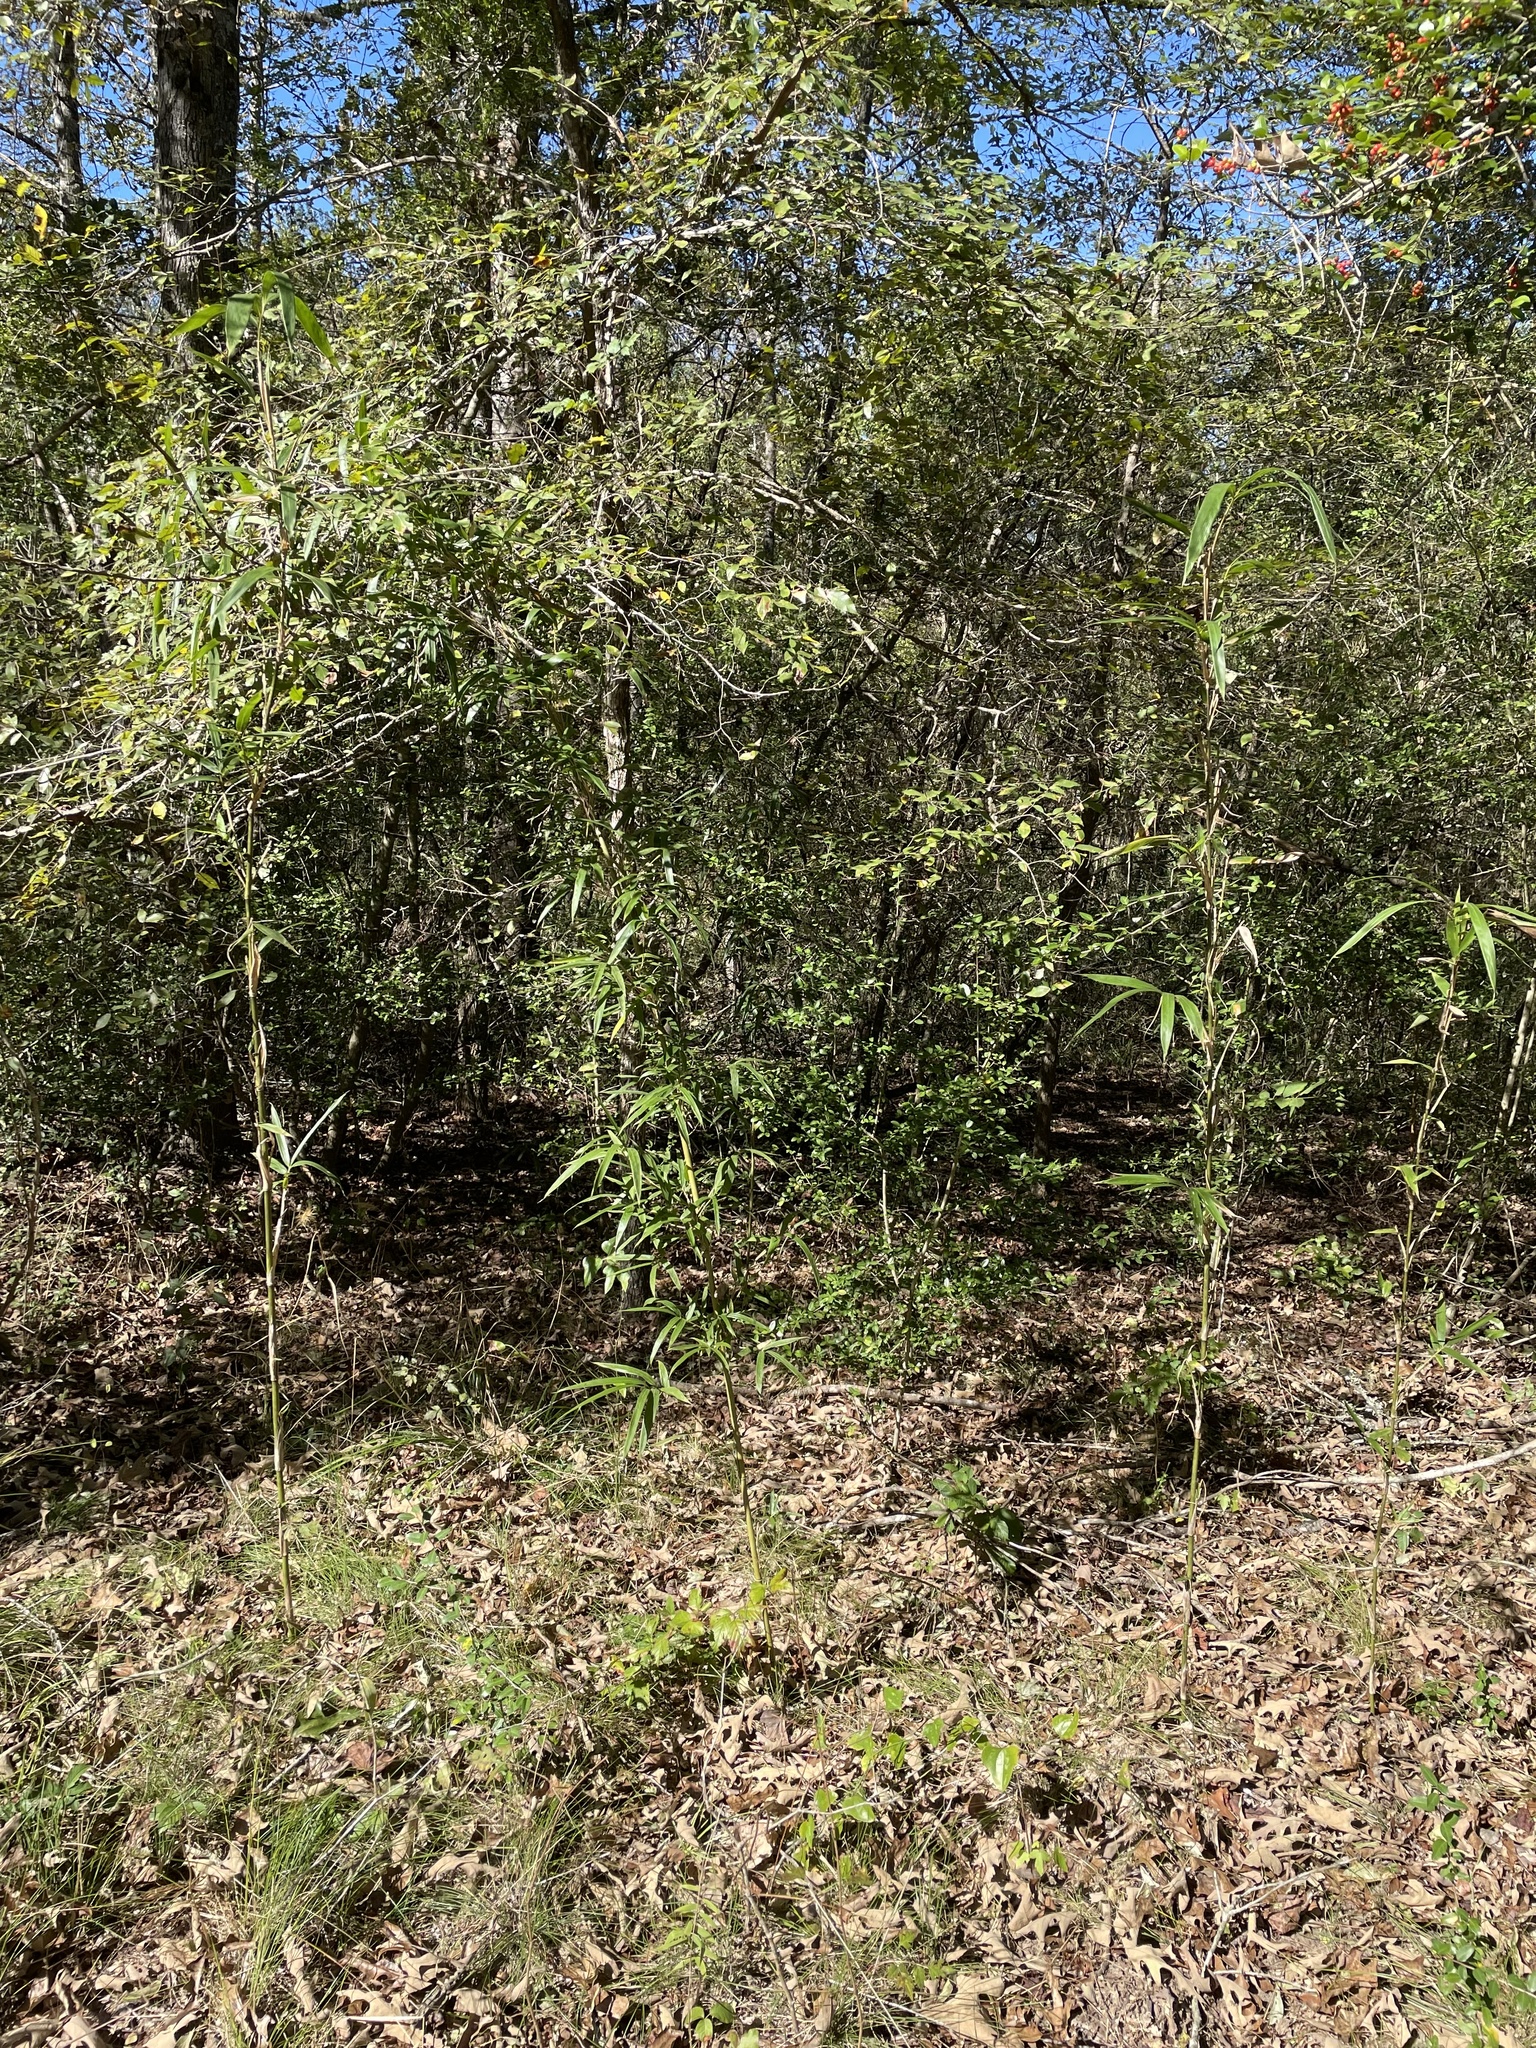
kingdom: Plantae
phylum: Tracheophyta
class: Liliopsida
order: Poales
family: Poaceae
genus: Arundinaria
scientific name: Arundinaria gigantea
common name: Giant cane
